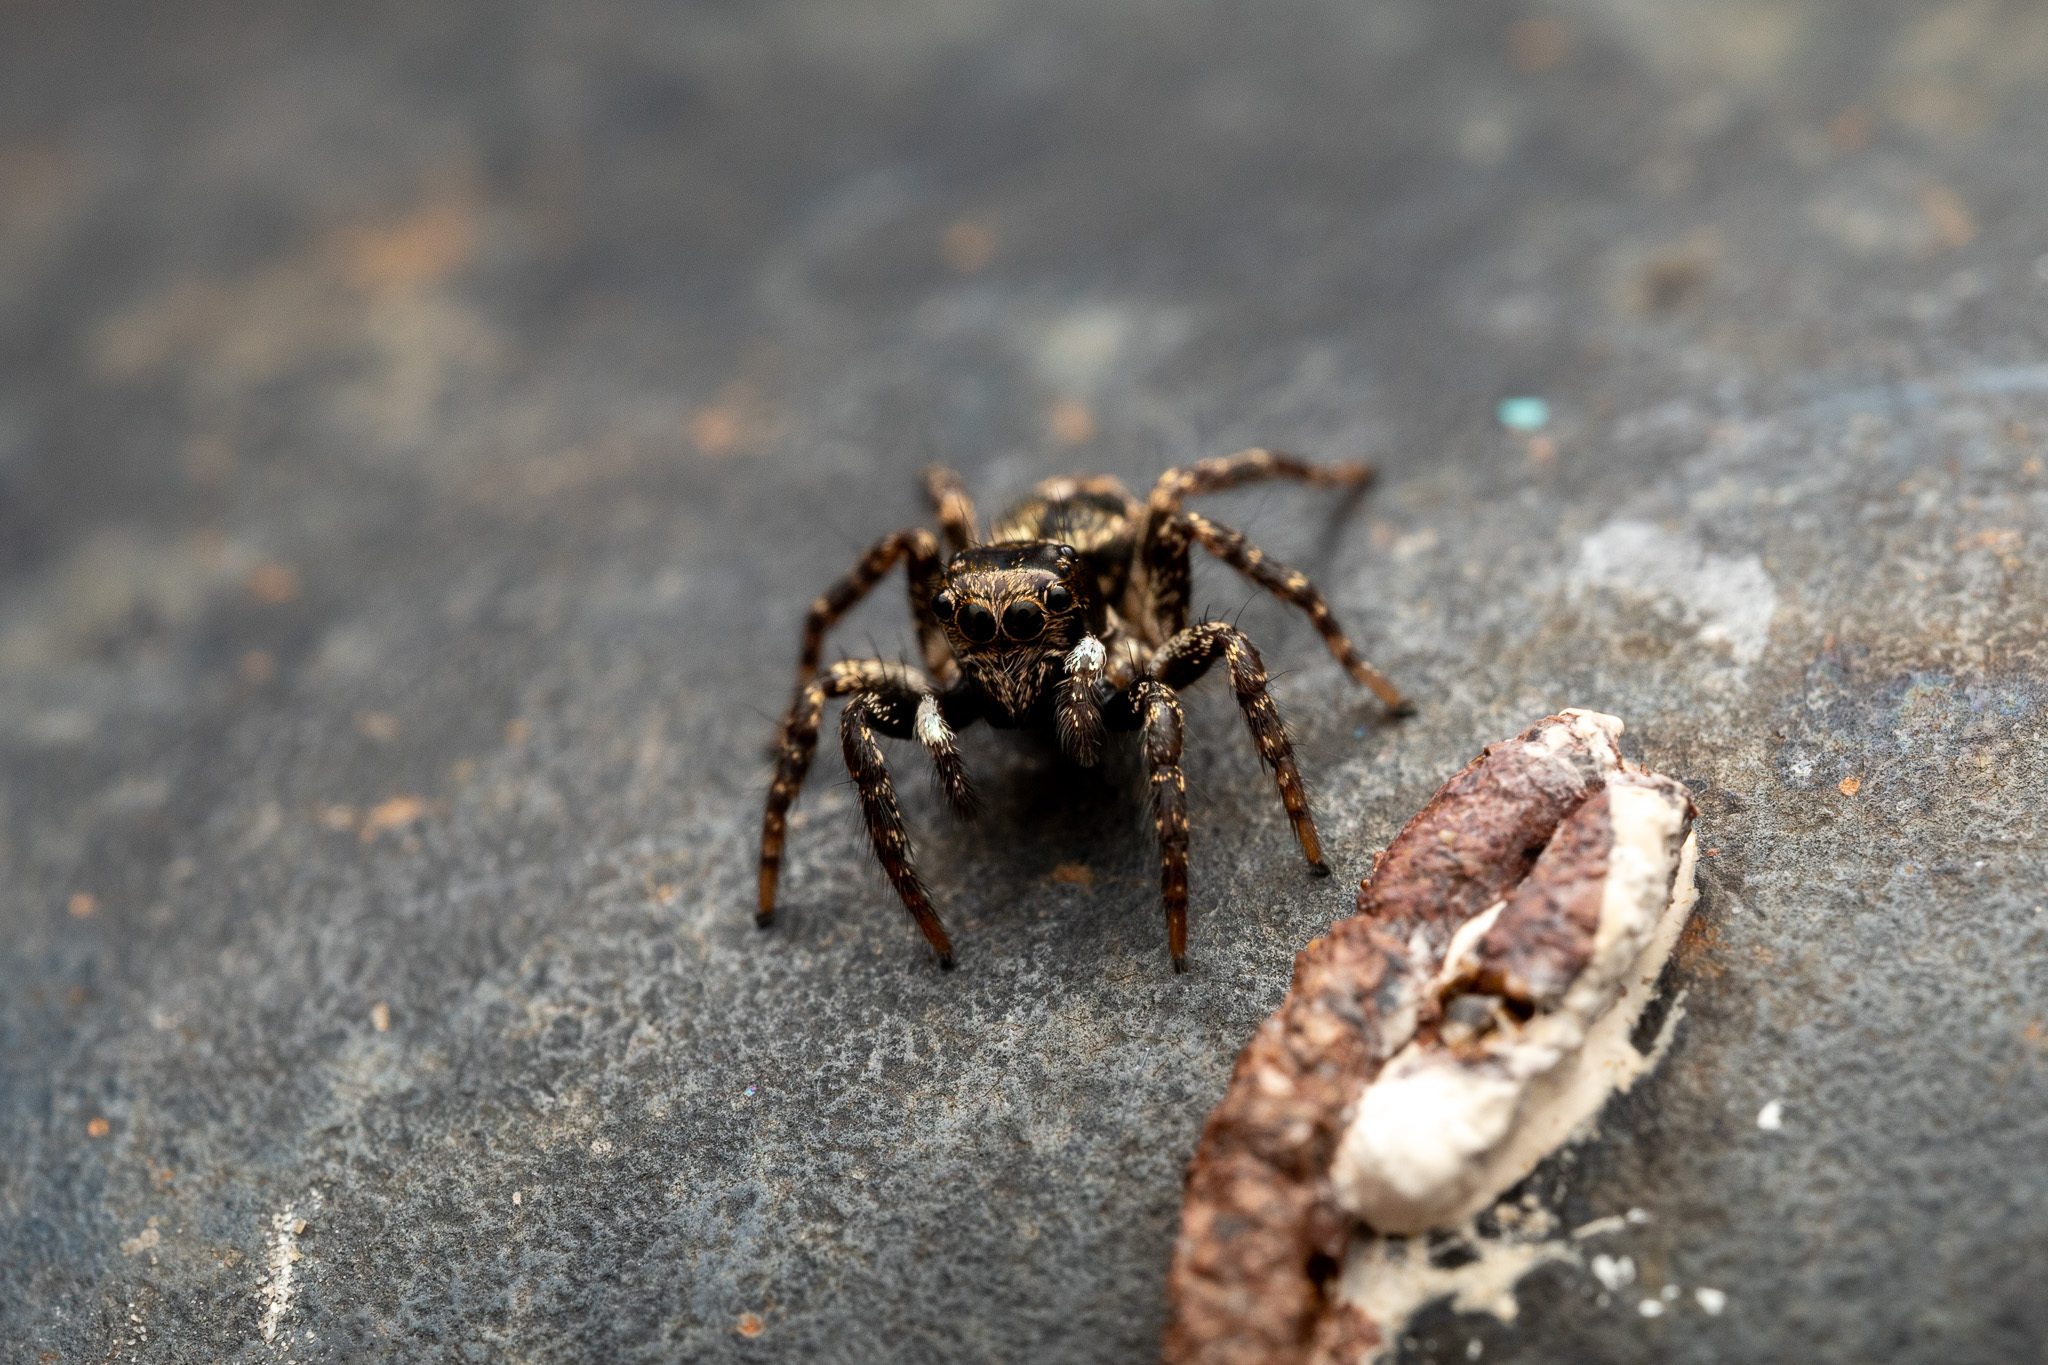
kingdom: Animalia
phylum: Arthropoda
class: Arachnida
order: Araneae
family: Salticidae
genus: Anasaitis
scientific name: Anasaitis canosa
